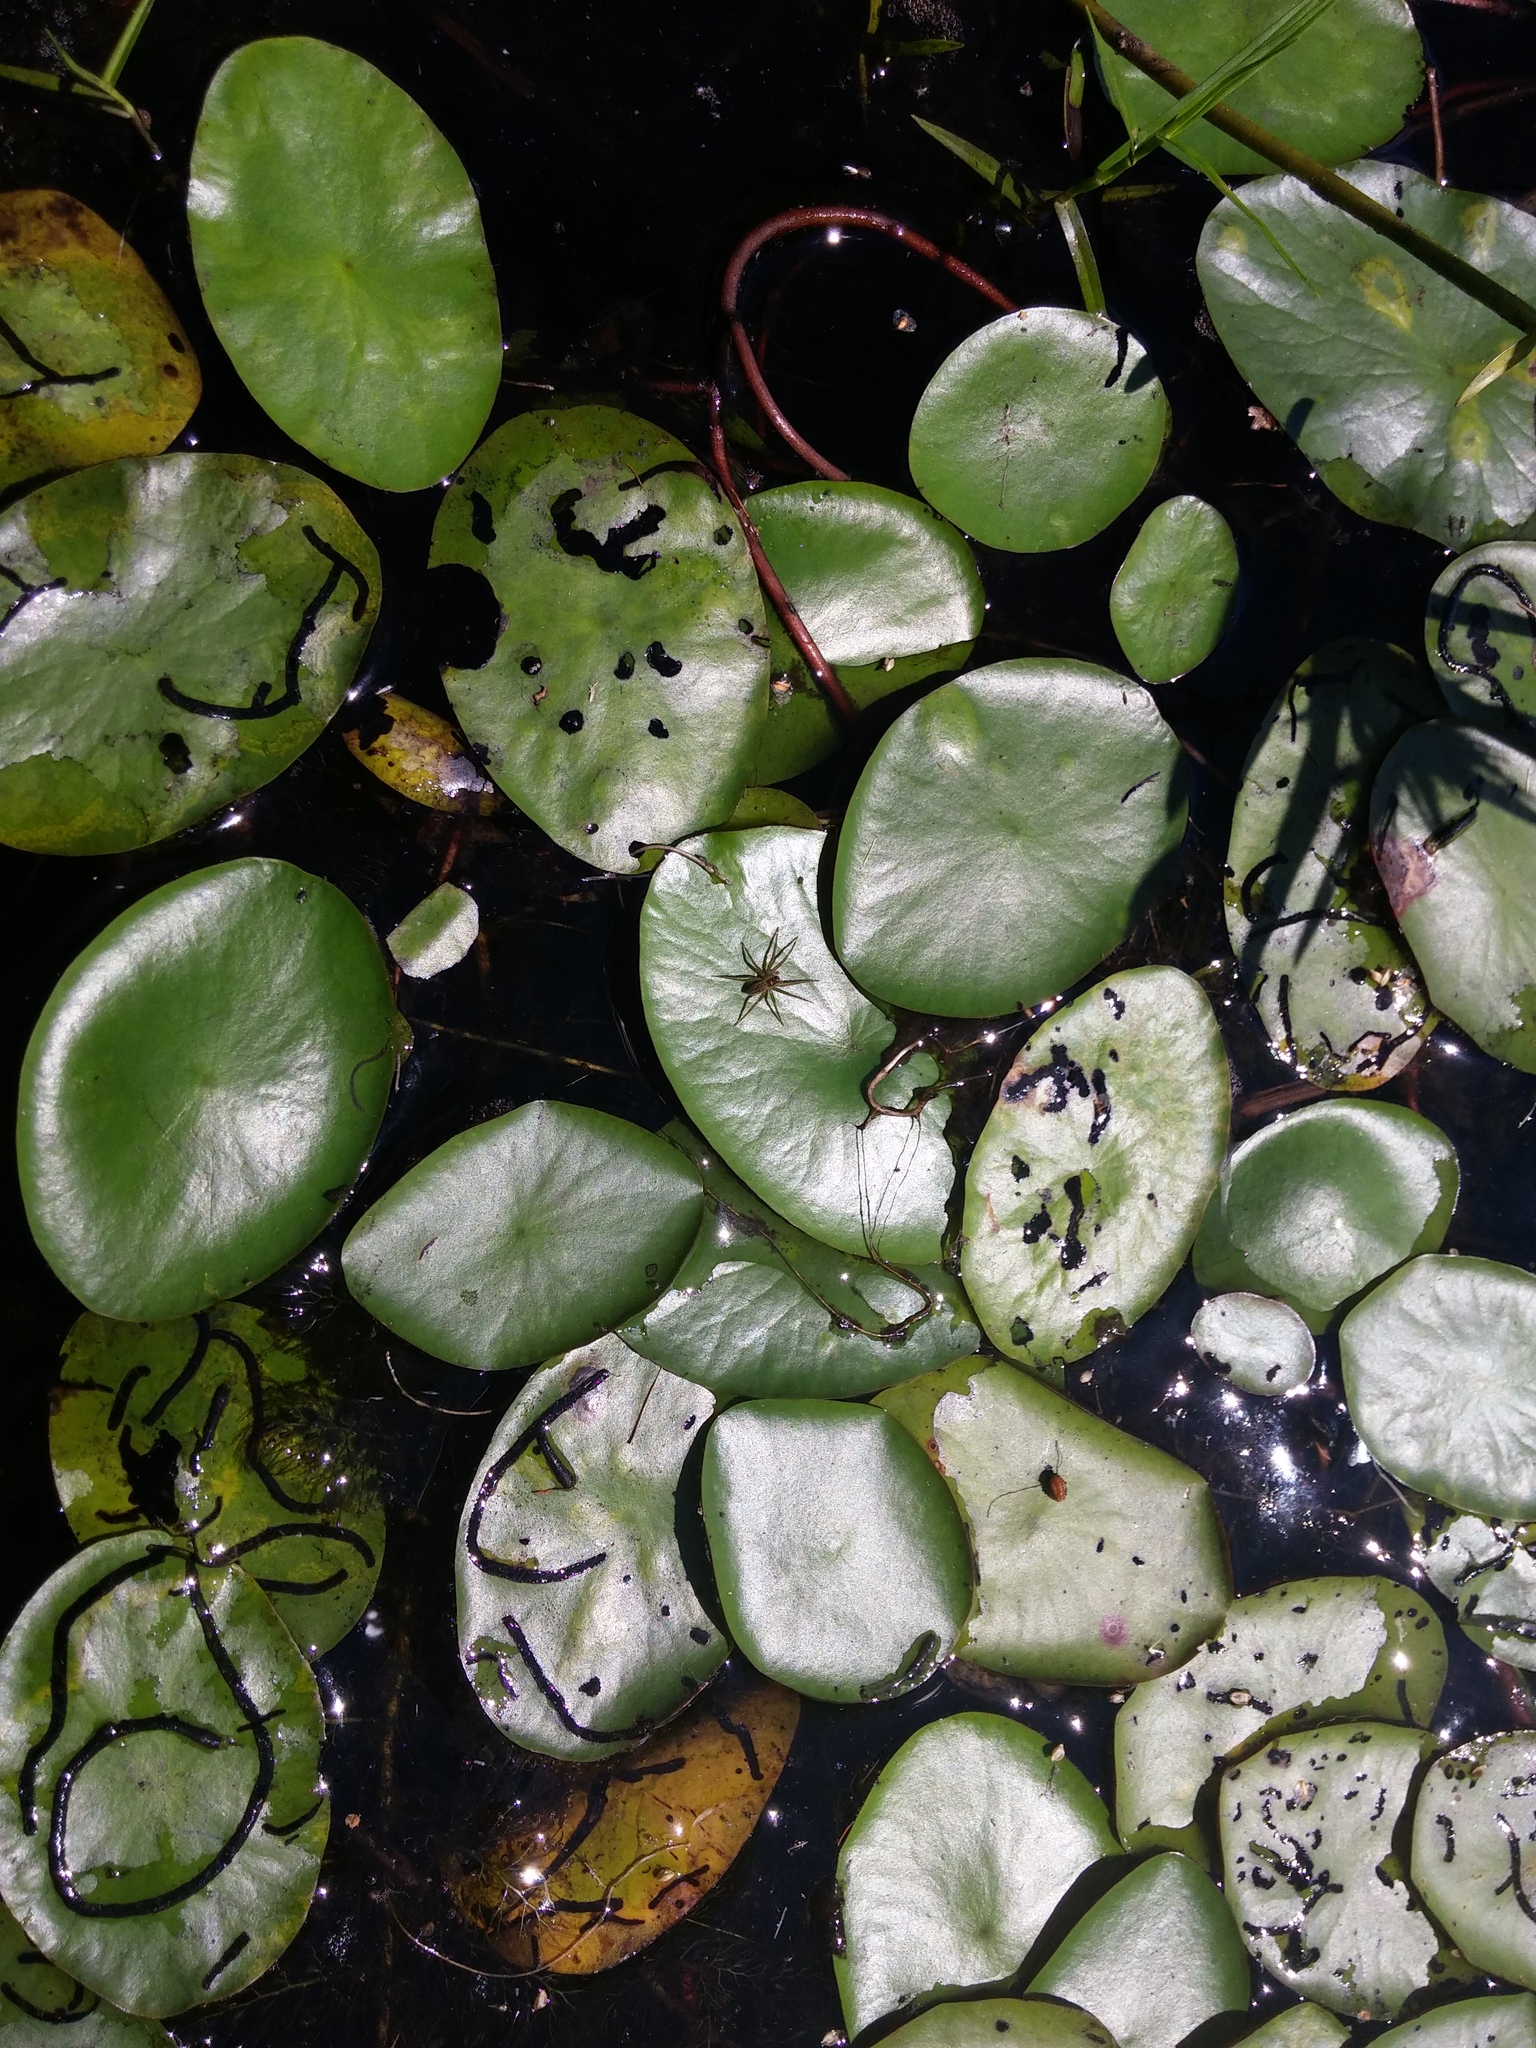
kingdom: Plantae
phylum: Tracheophyta
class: Magnoliopsida
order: Nymphaeales
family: Cabombaceae
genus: Brasenia
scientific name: Brasenia schreberi
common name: Water-shield
